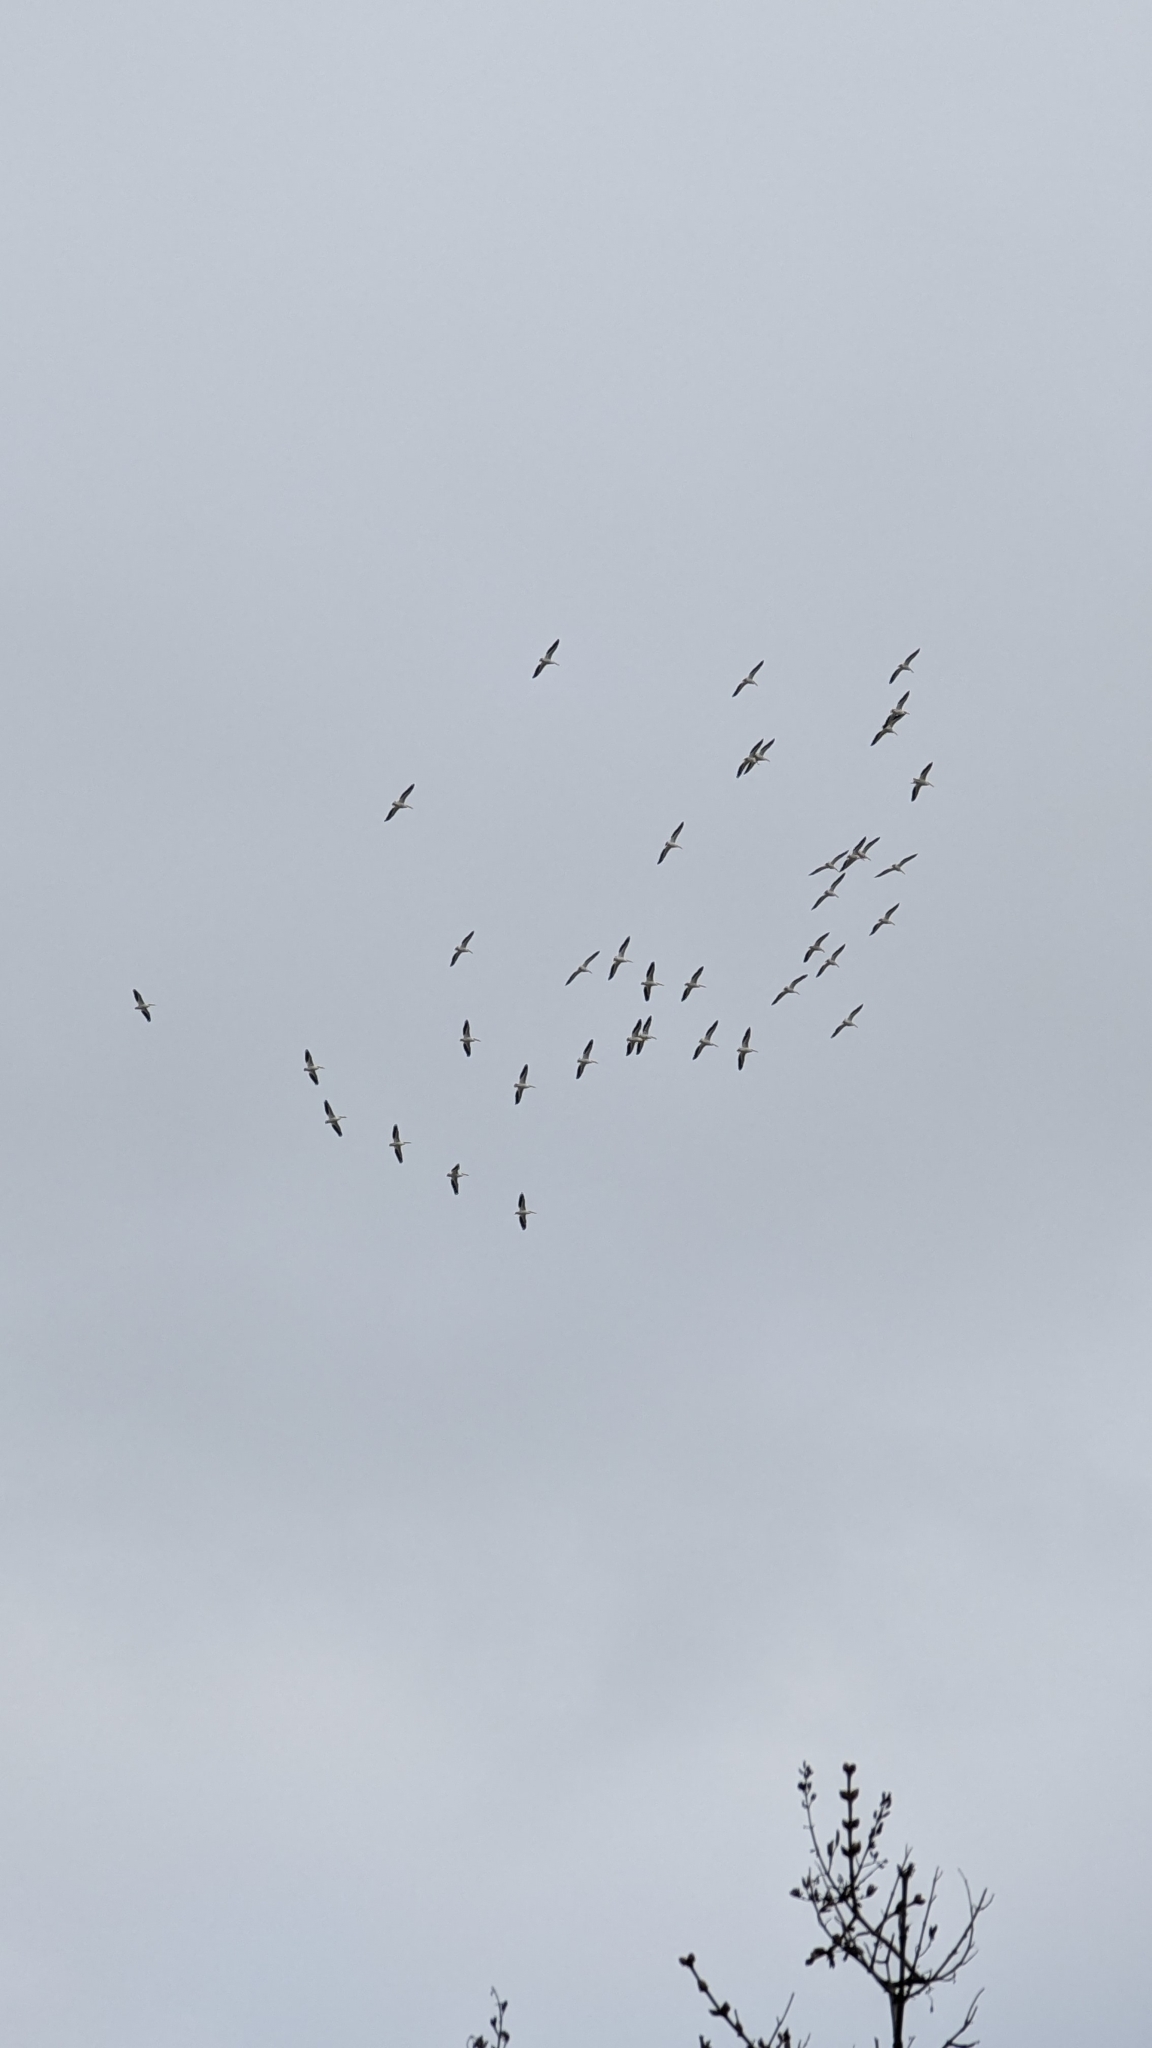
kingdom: Animalia
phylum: Chordata
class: Aves
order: Pelecaniformes
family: Pelecanidae
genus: Pelecanus
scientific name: Pelecanus erythrorhynchos
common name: American white pelican
